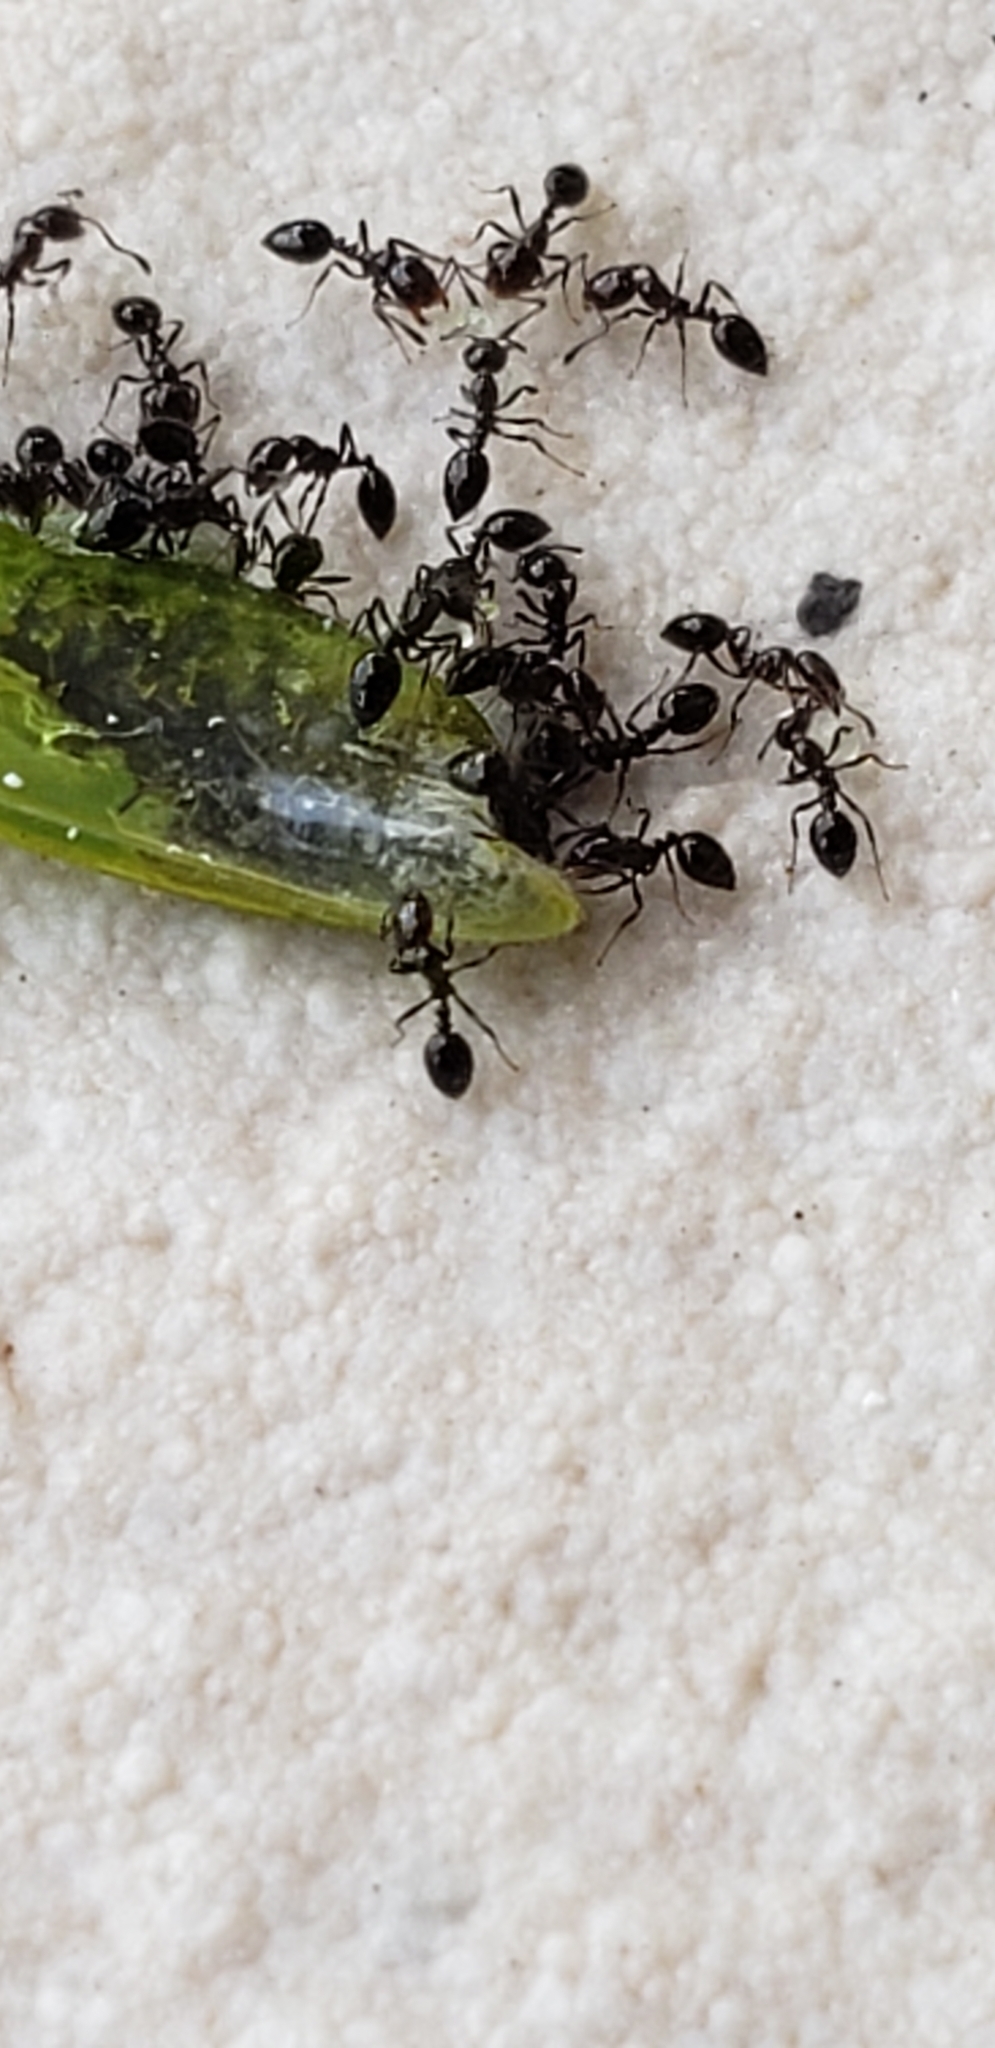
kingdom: Animalia
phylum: Arthropoda
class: Insecta
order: Hymenoptera
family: Formicidae
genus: Monomorium
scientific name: Monomorium ebeninum
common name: Ant
